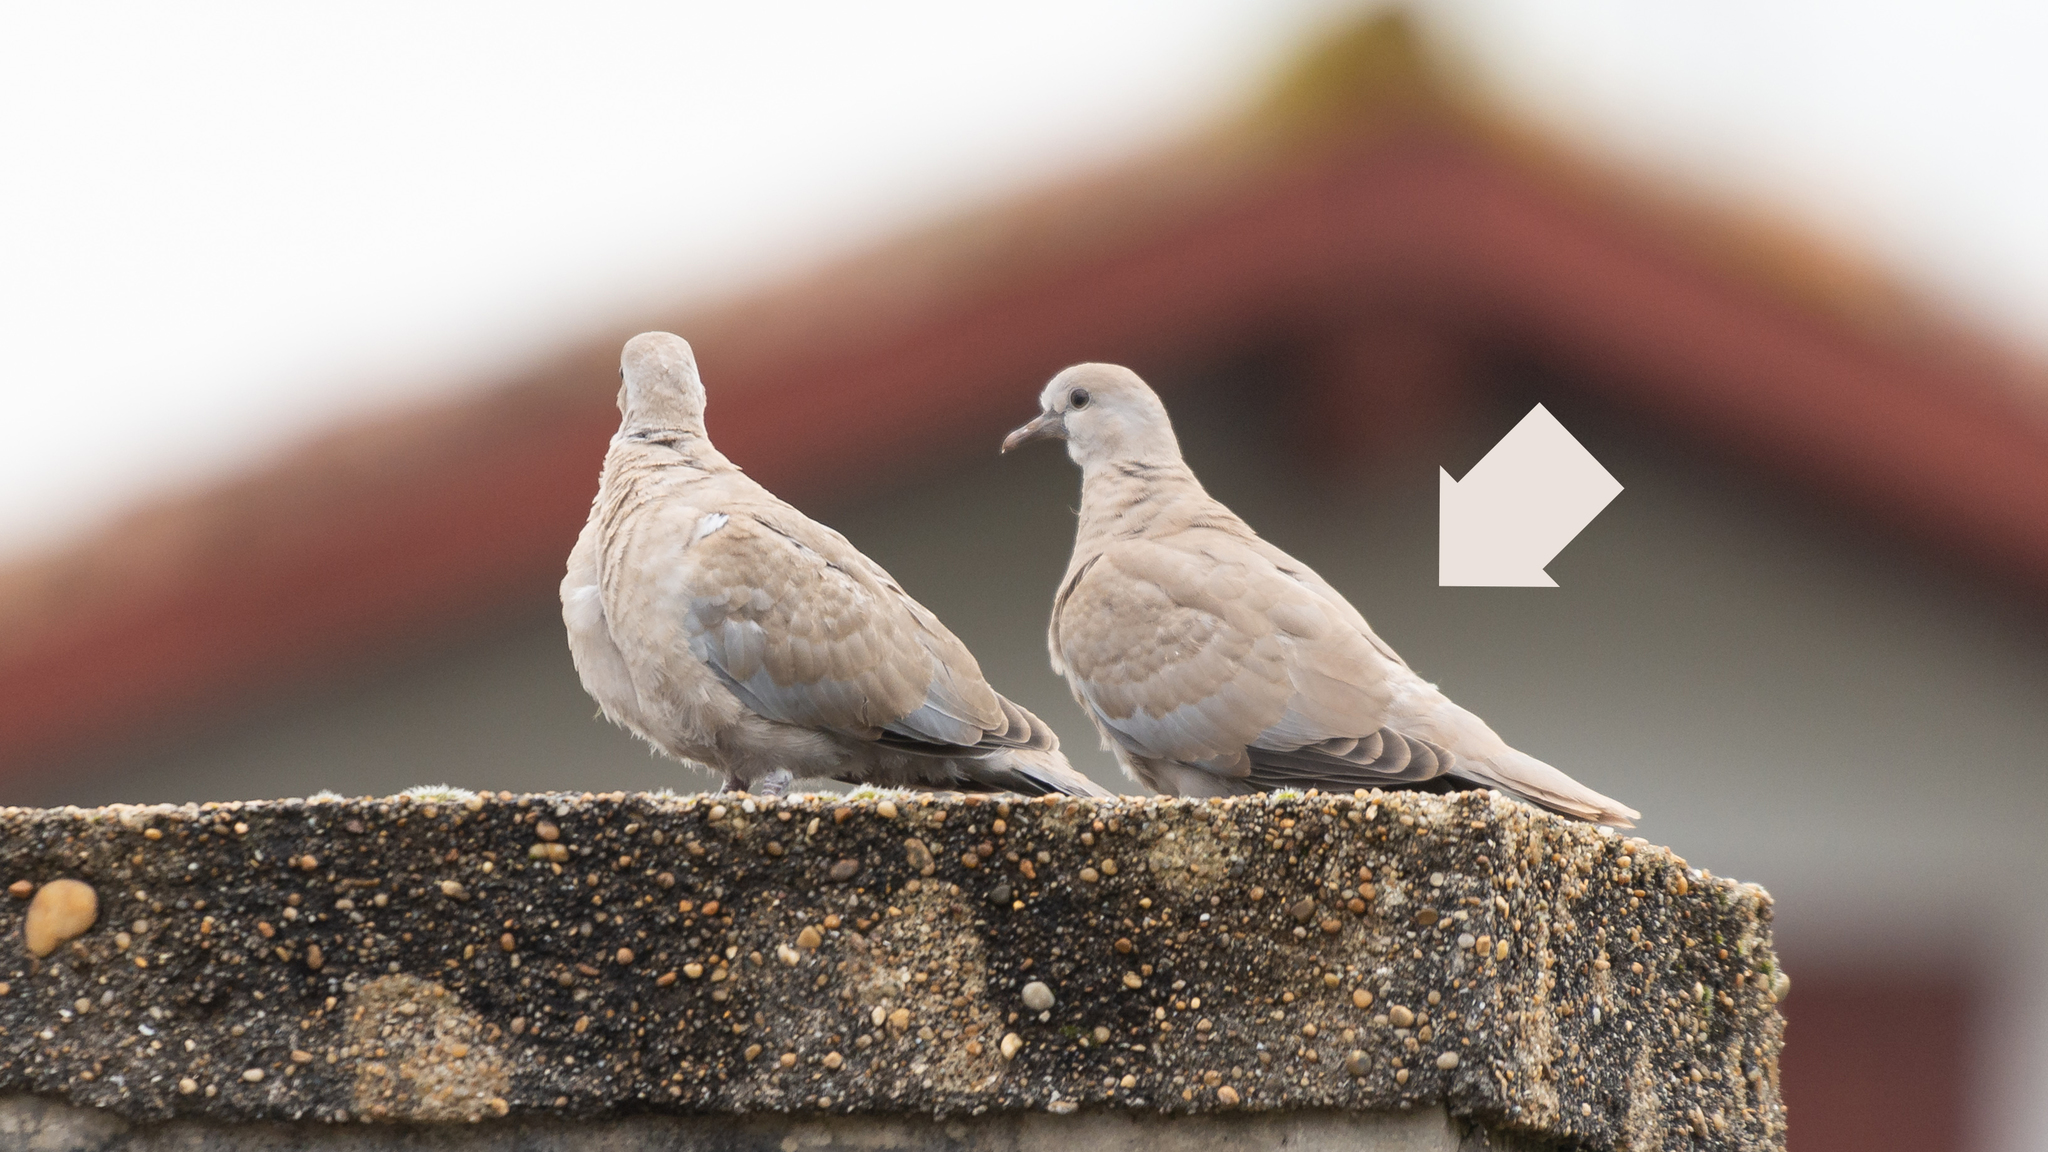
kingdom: Animalia
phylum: Chordata
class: Aves
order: Columbiformes
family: Columbidae
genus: Streptopelia
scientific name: Streptopelia decaocto
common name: Eurasian collared dove
